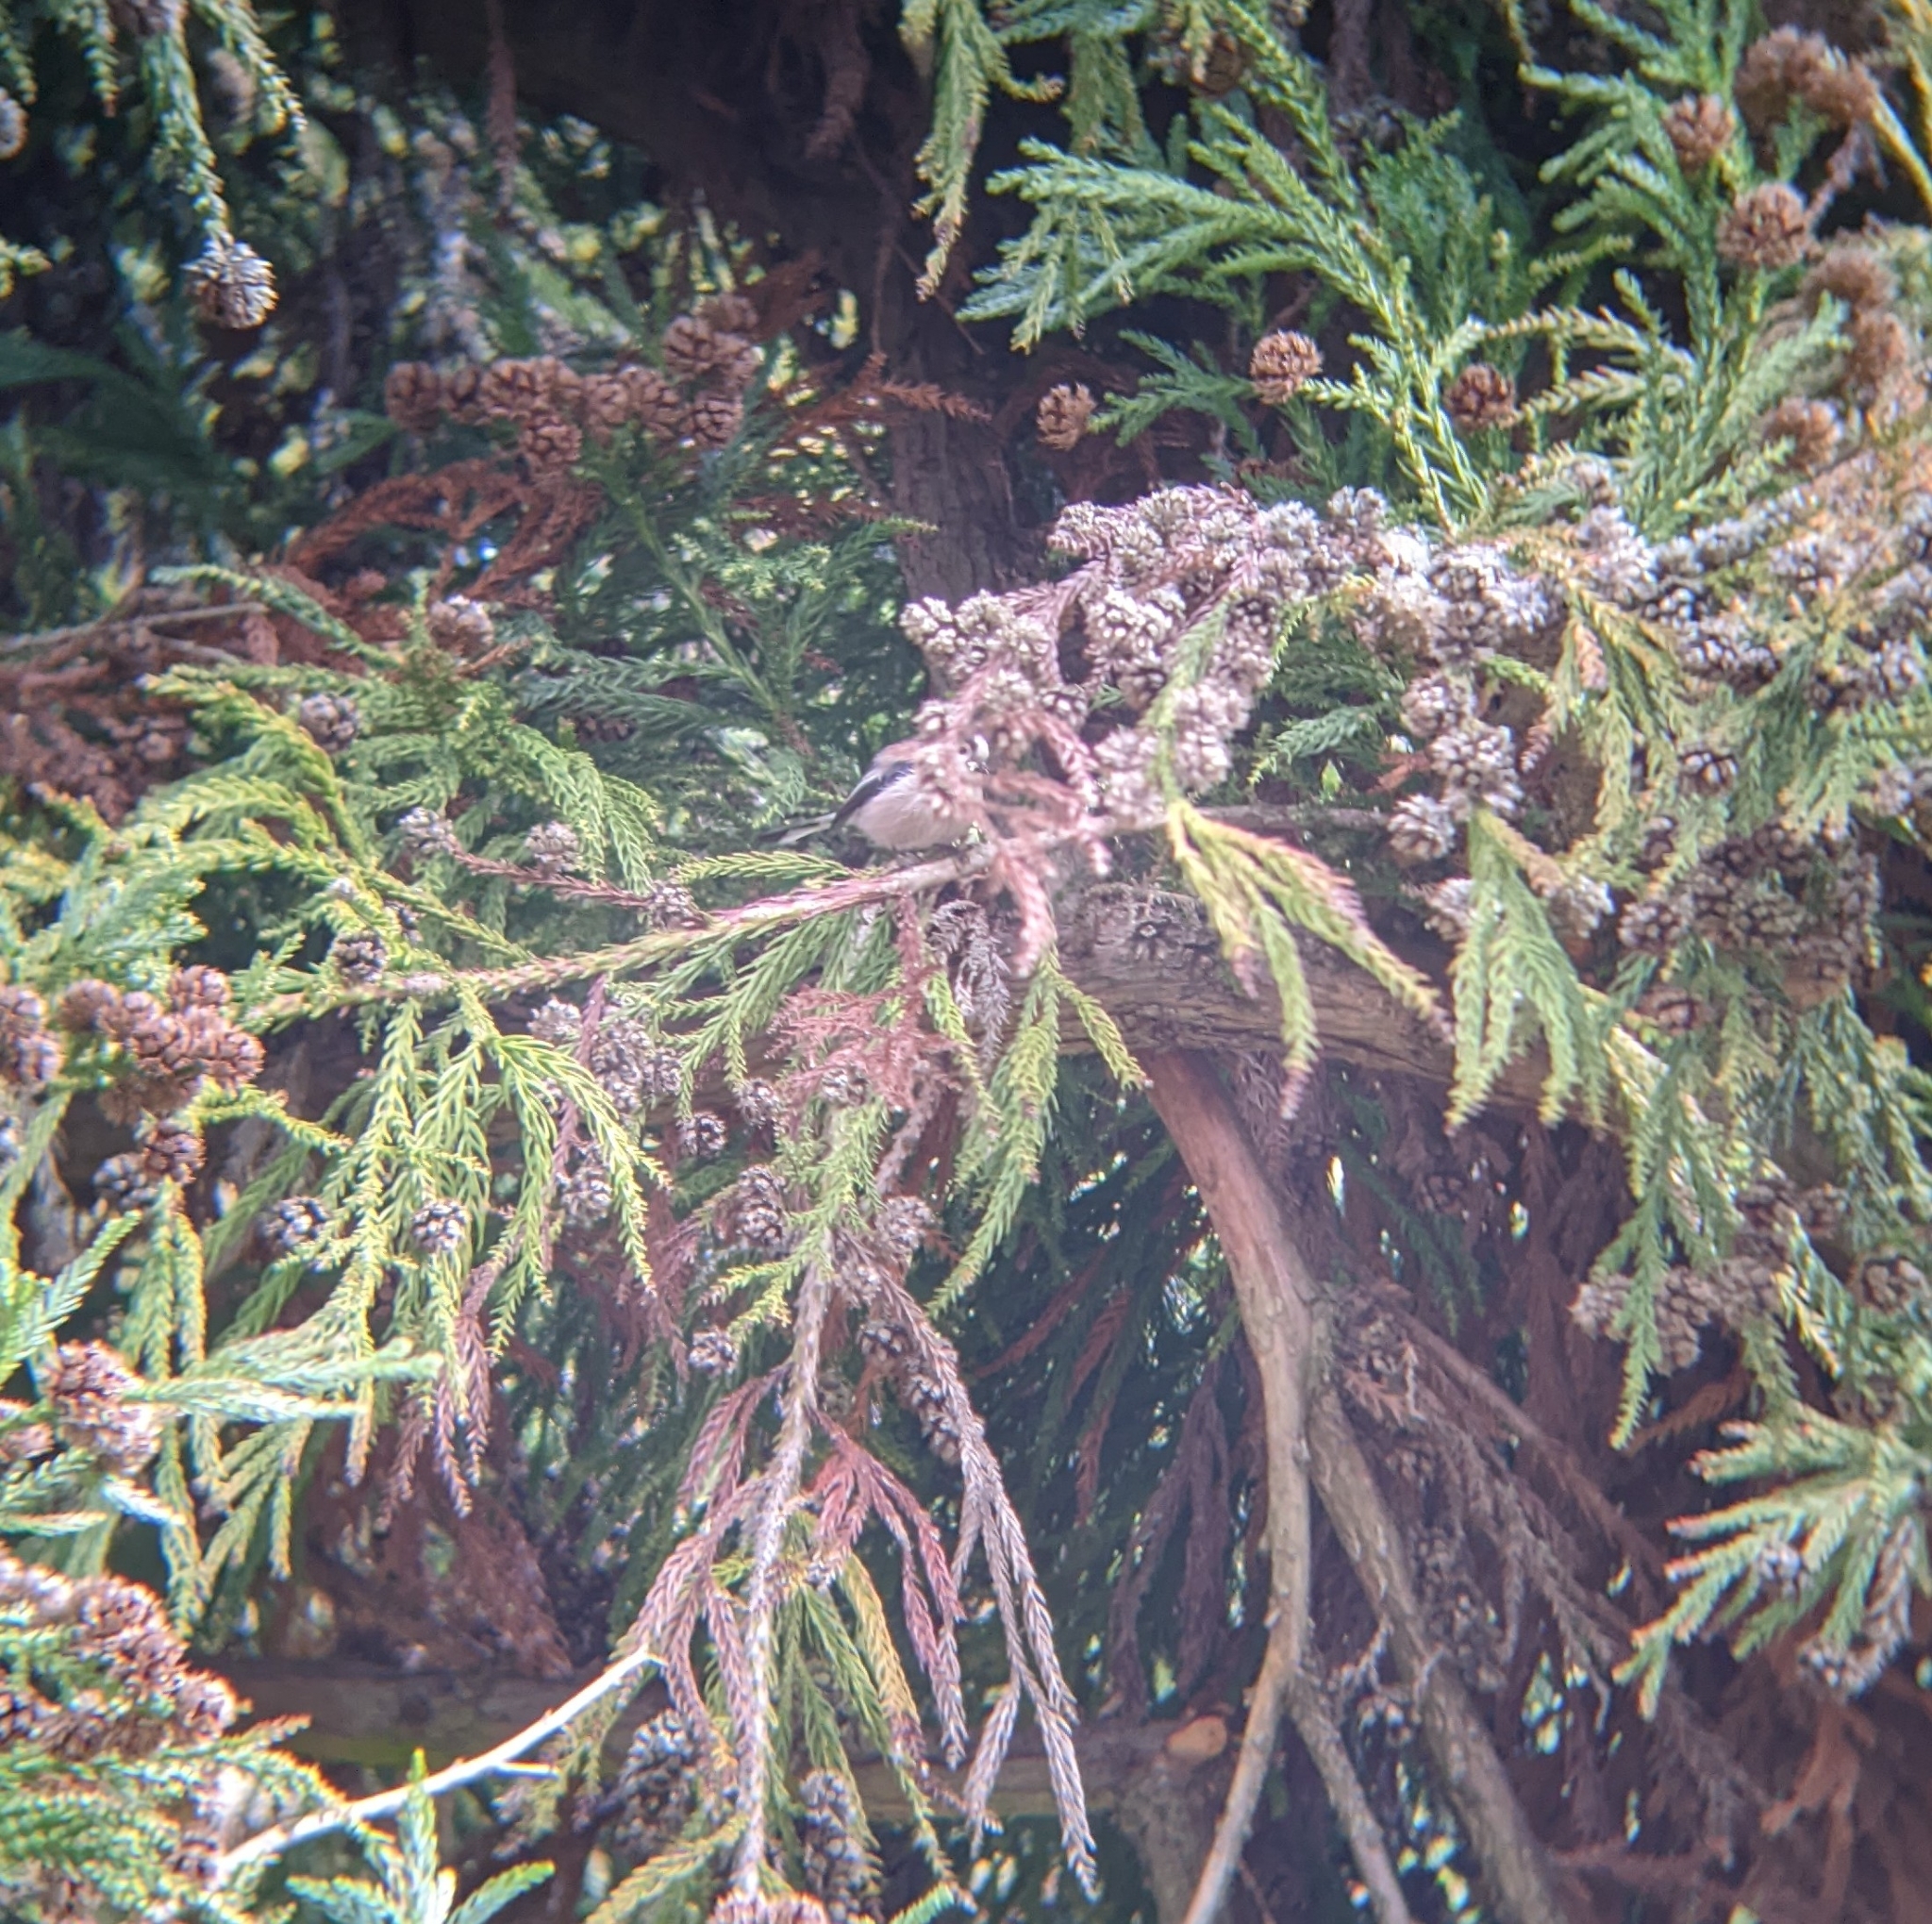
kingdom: Animalia
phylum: Chordata
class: Aves
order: Passeriformes
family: Aegithalidae
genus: Aegithalos
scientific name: Aegithalos caudatus
